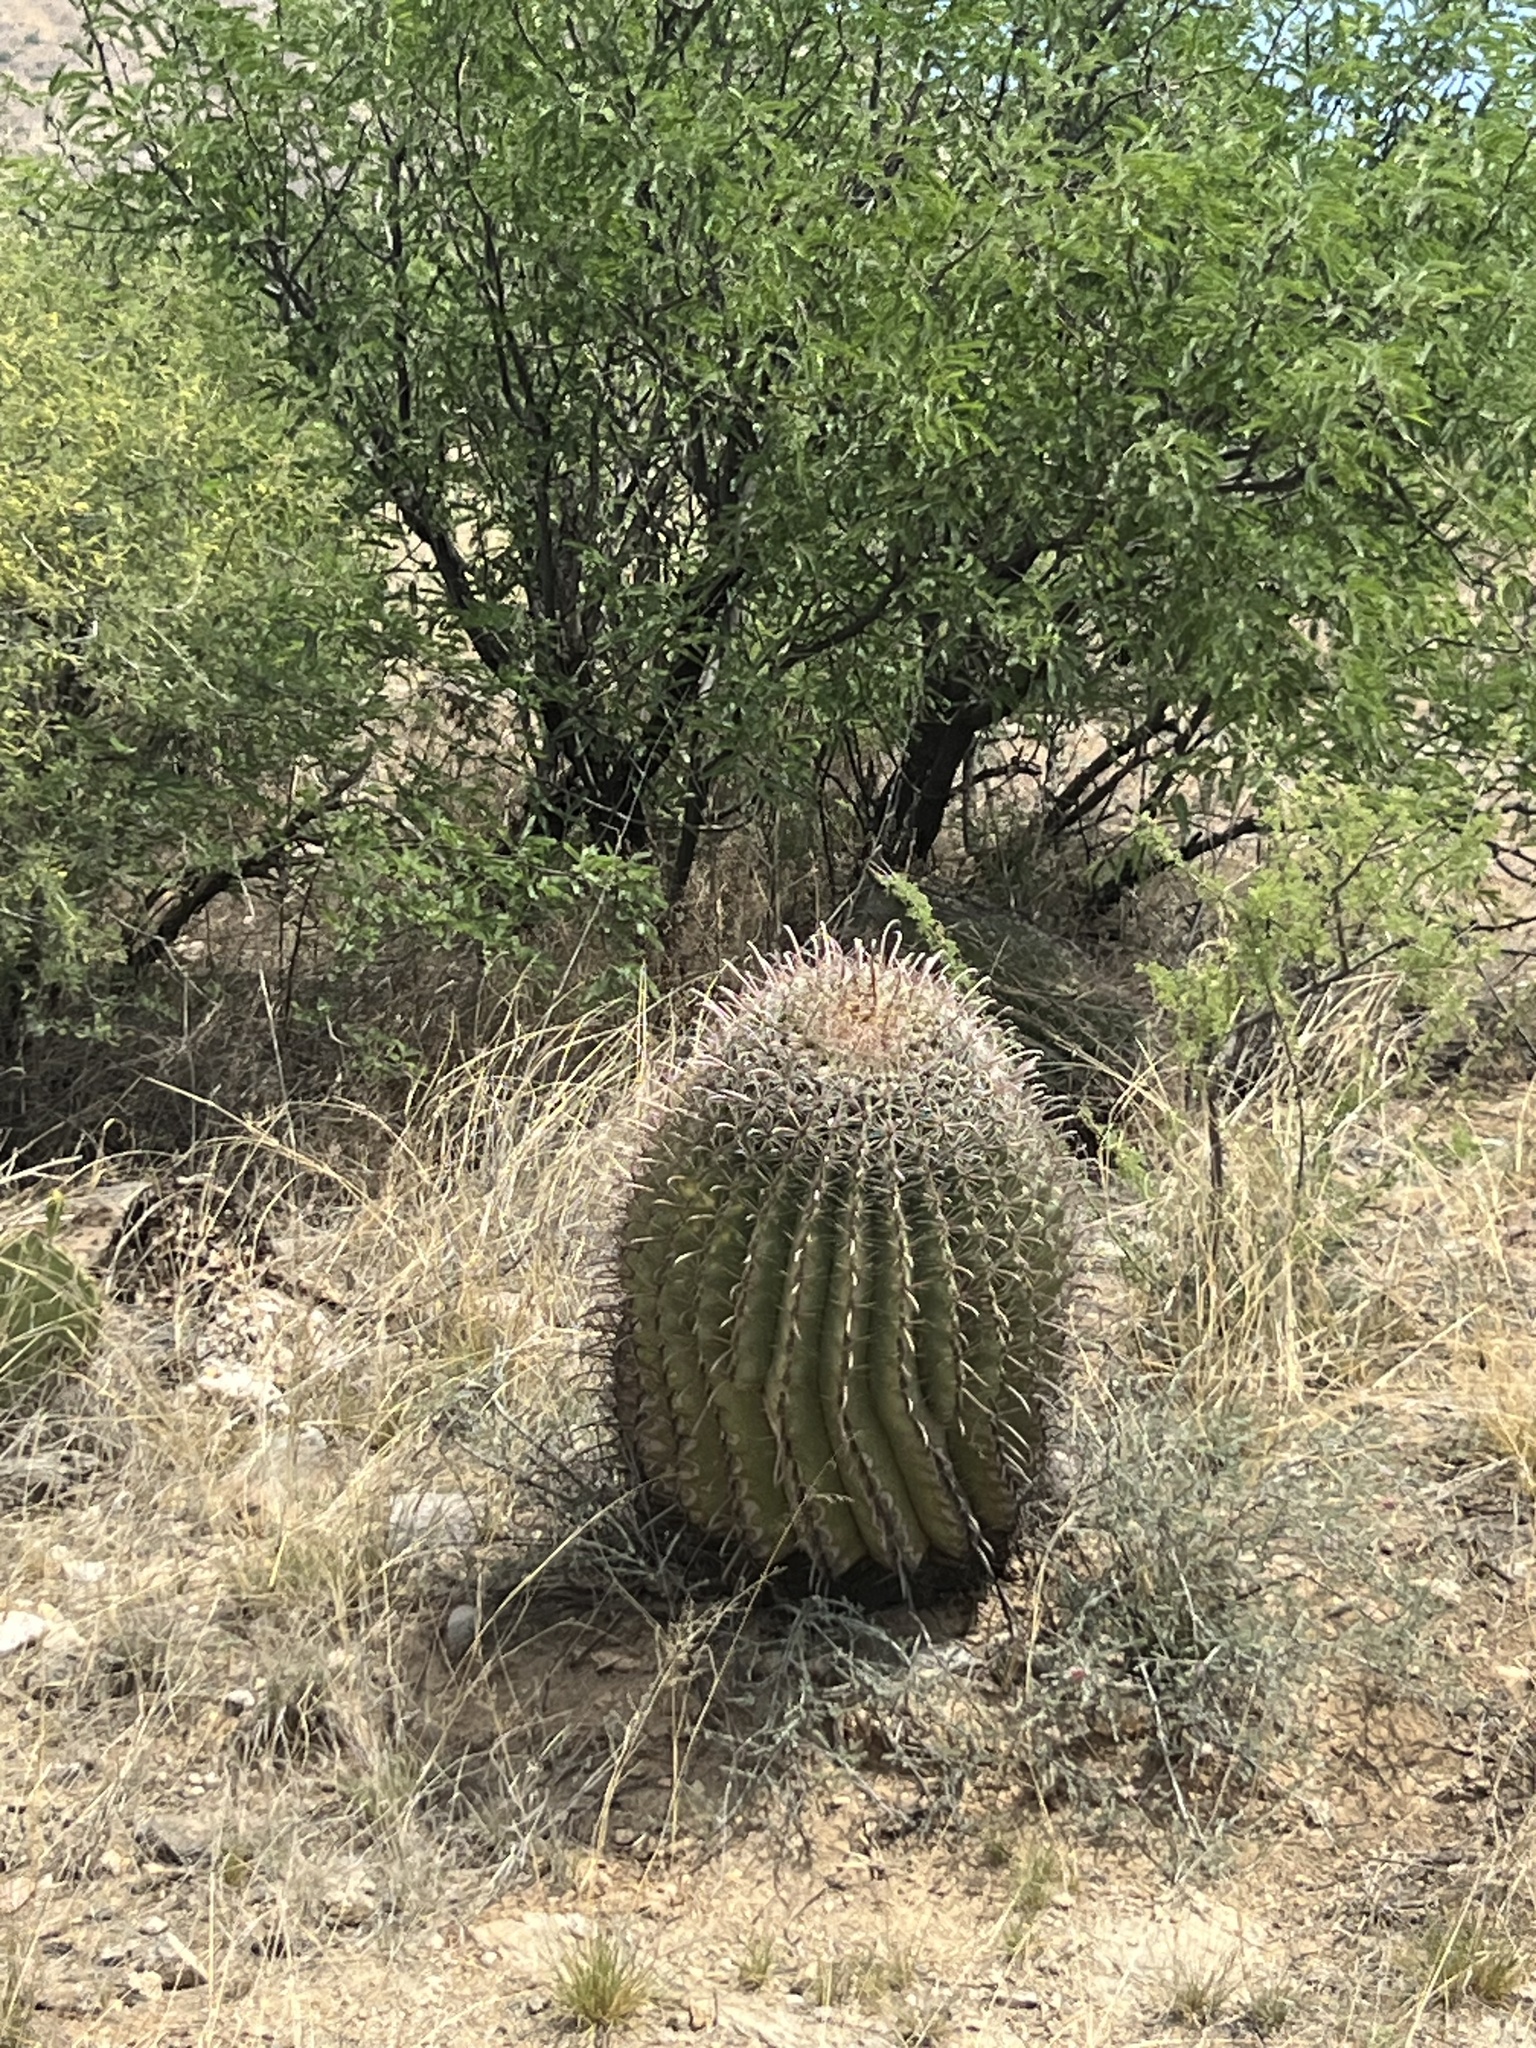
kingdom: Plantae
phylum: Tracheophyta
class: Magnoliopsida
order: Caryophyllales
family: Cactaceae
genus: Ferocactus
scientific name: Ferocactus wislizeni
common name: Candy barrel cactus
